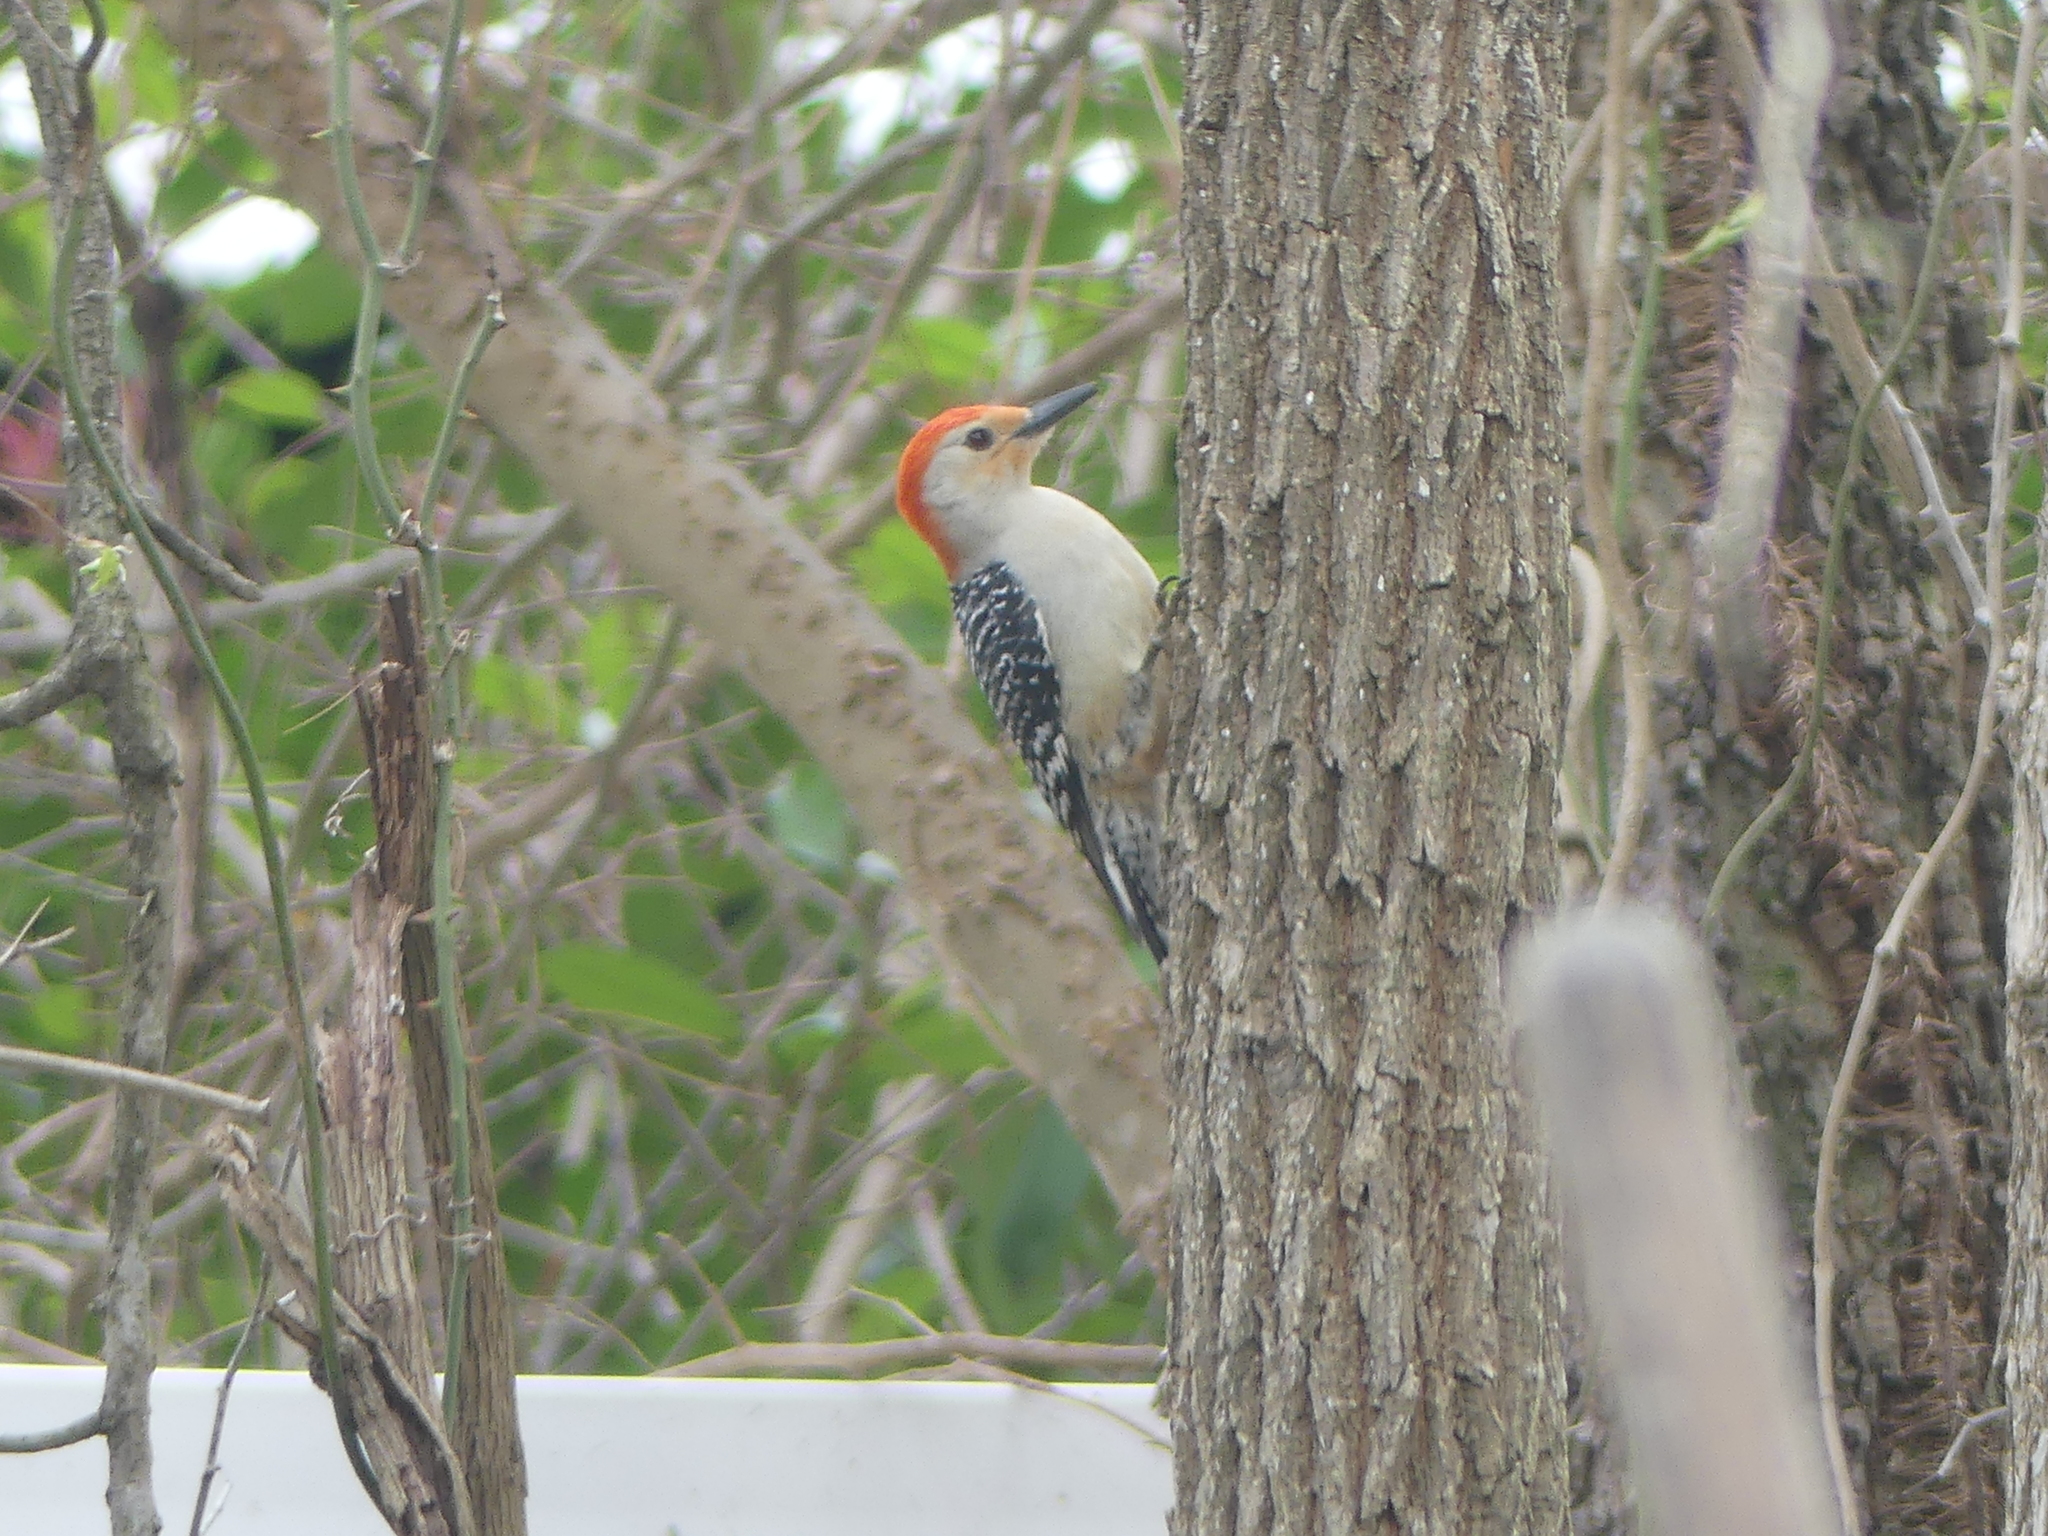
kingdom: Animalia
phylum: Chordata
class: Aves
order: Piciformes
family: Picidae
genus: Melanerpes
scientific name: Melanerpes carolinus
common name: Red-bellied woodpecker
